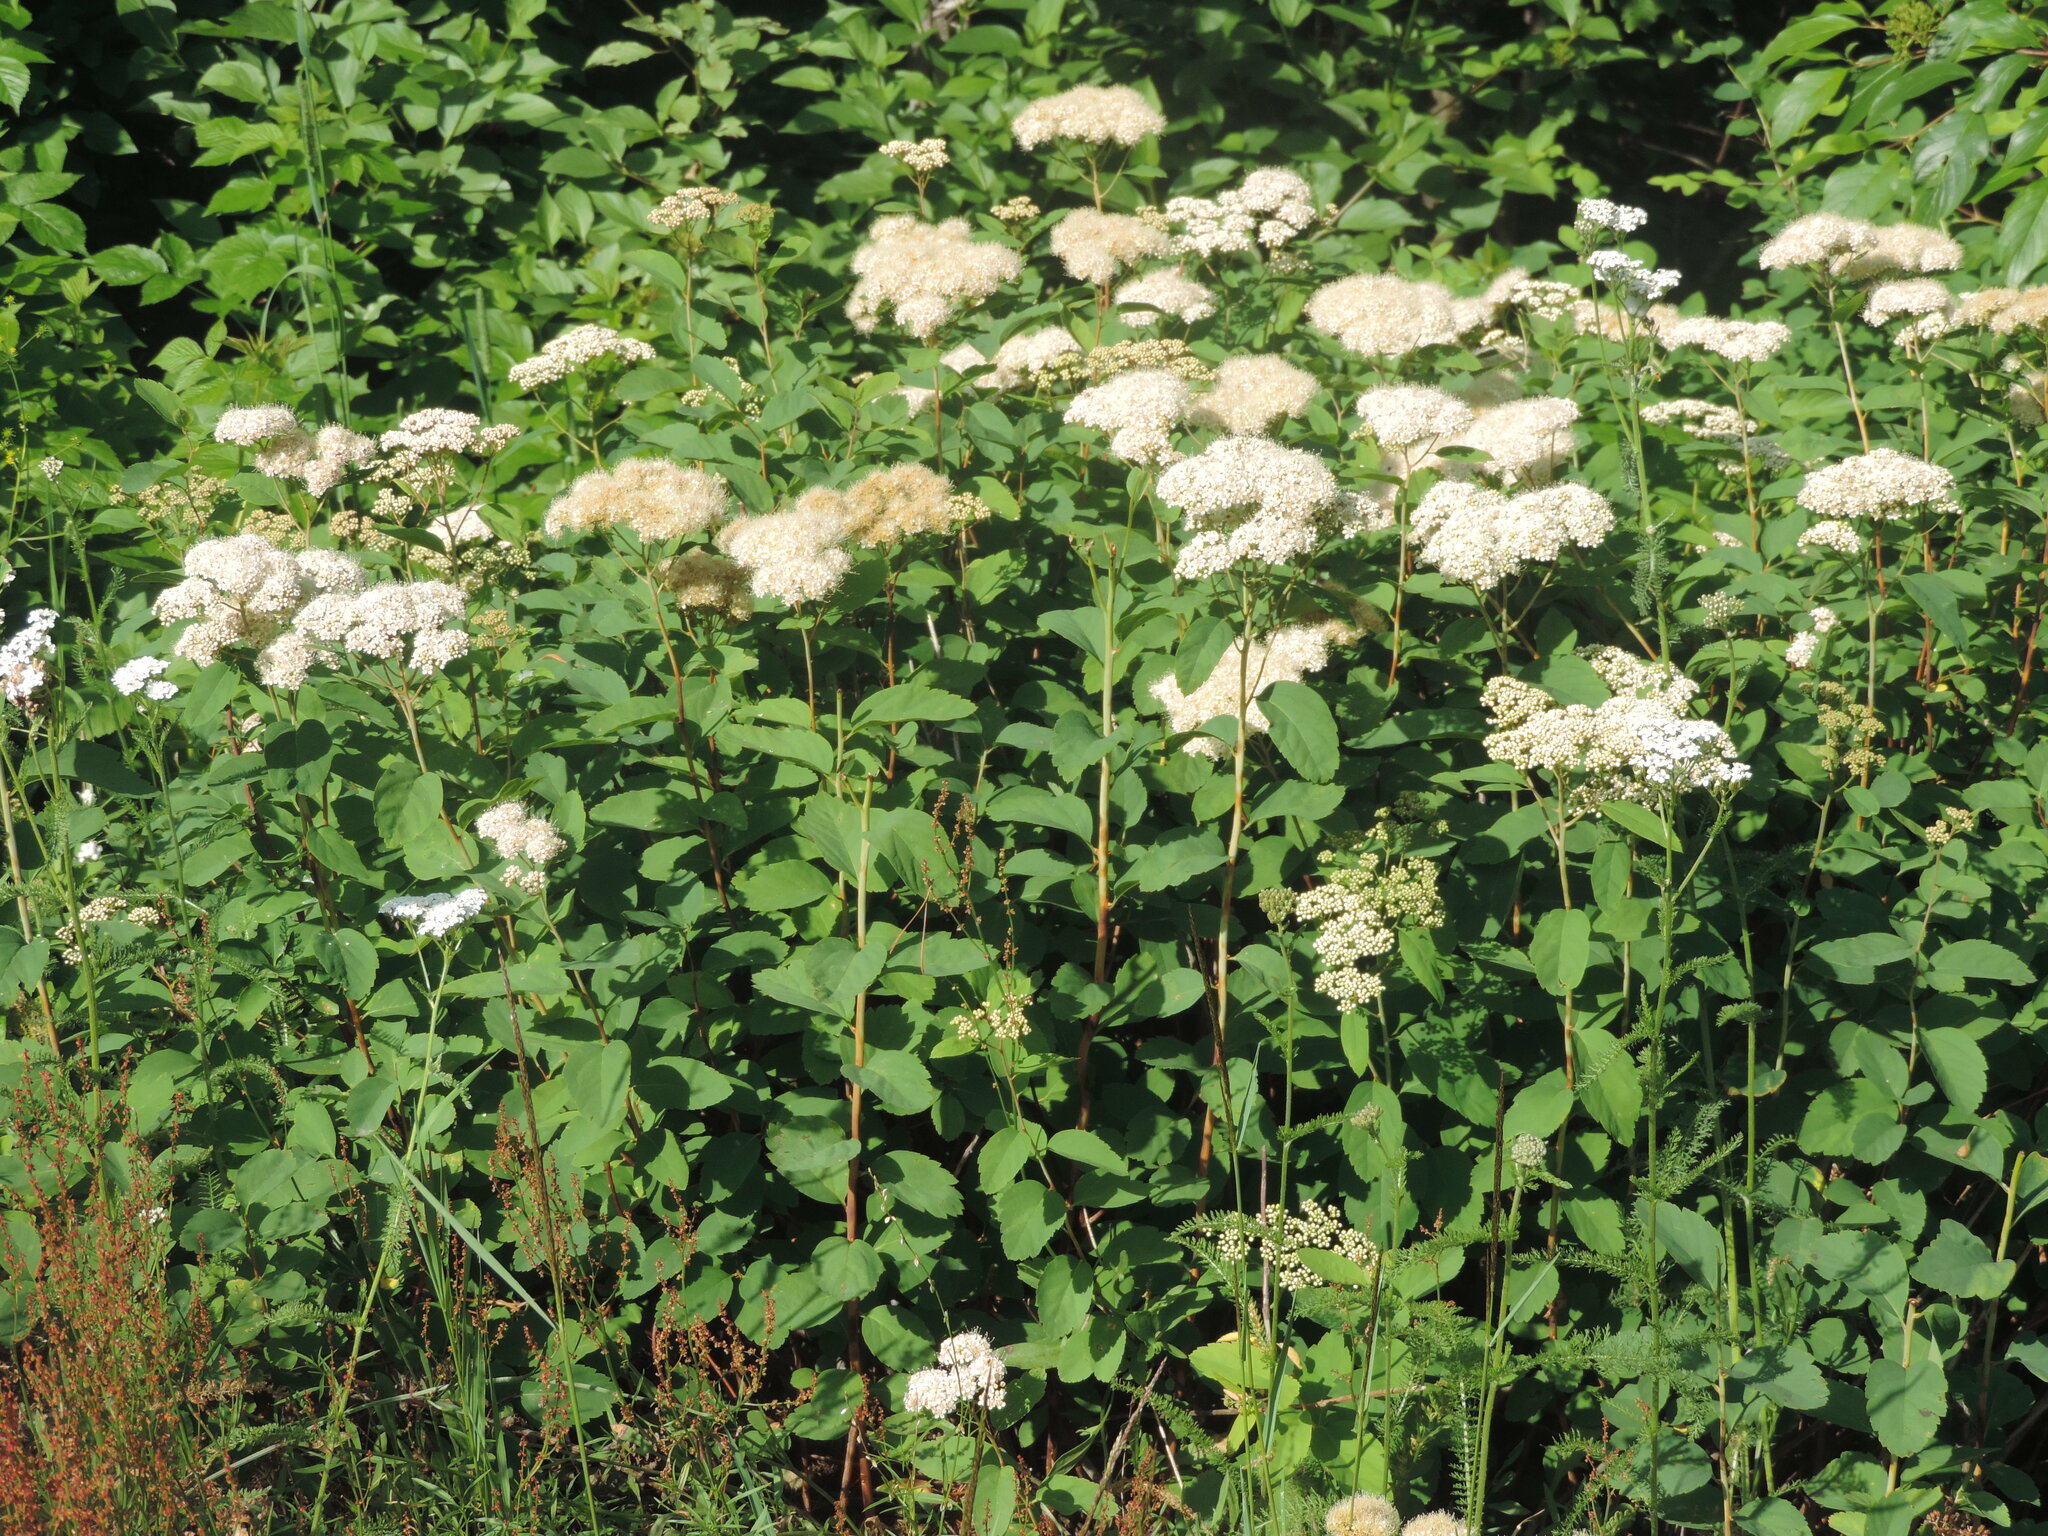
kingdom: Plantae
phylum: Tracheophyta
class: Magnoliopsida
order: Rosales
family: Rosaceae
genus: Spiraea
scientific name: Spiraea lucida
